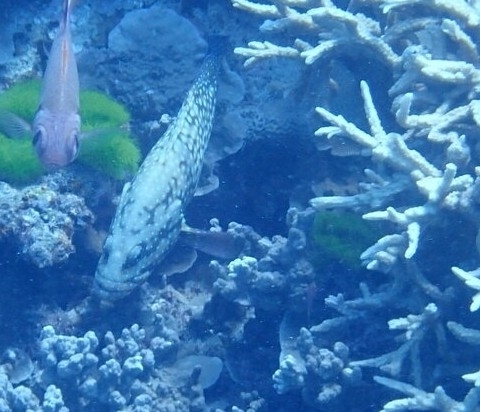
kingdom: Animalia
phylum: Chordata
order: Perciformes
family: Serranidae
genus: Cephalopholis
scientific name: Cephalopholis cyanostigma
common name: Bluespotted hind
